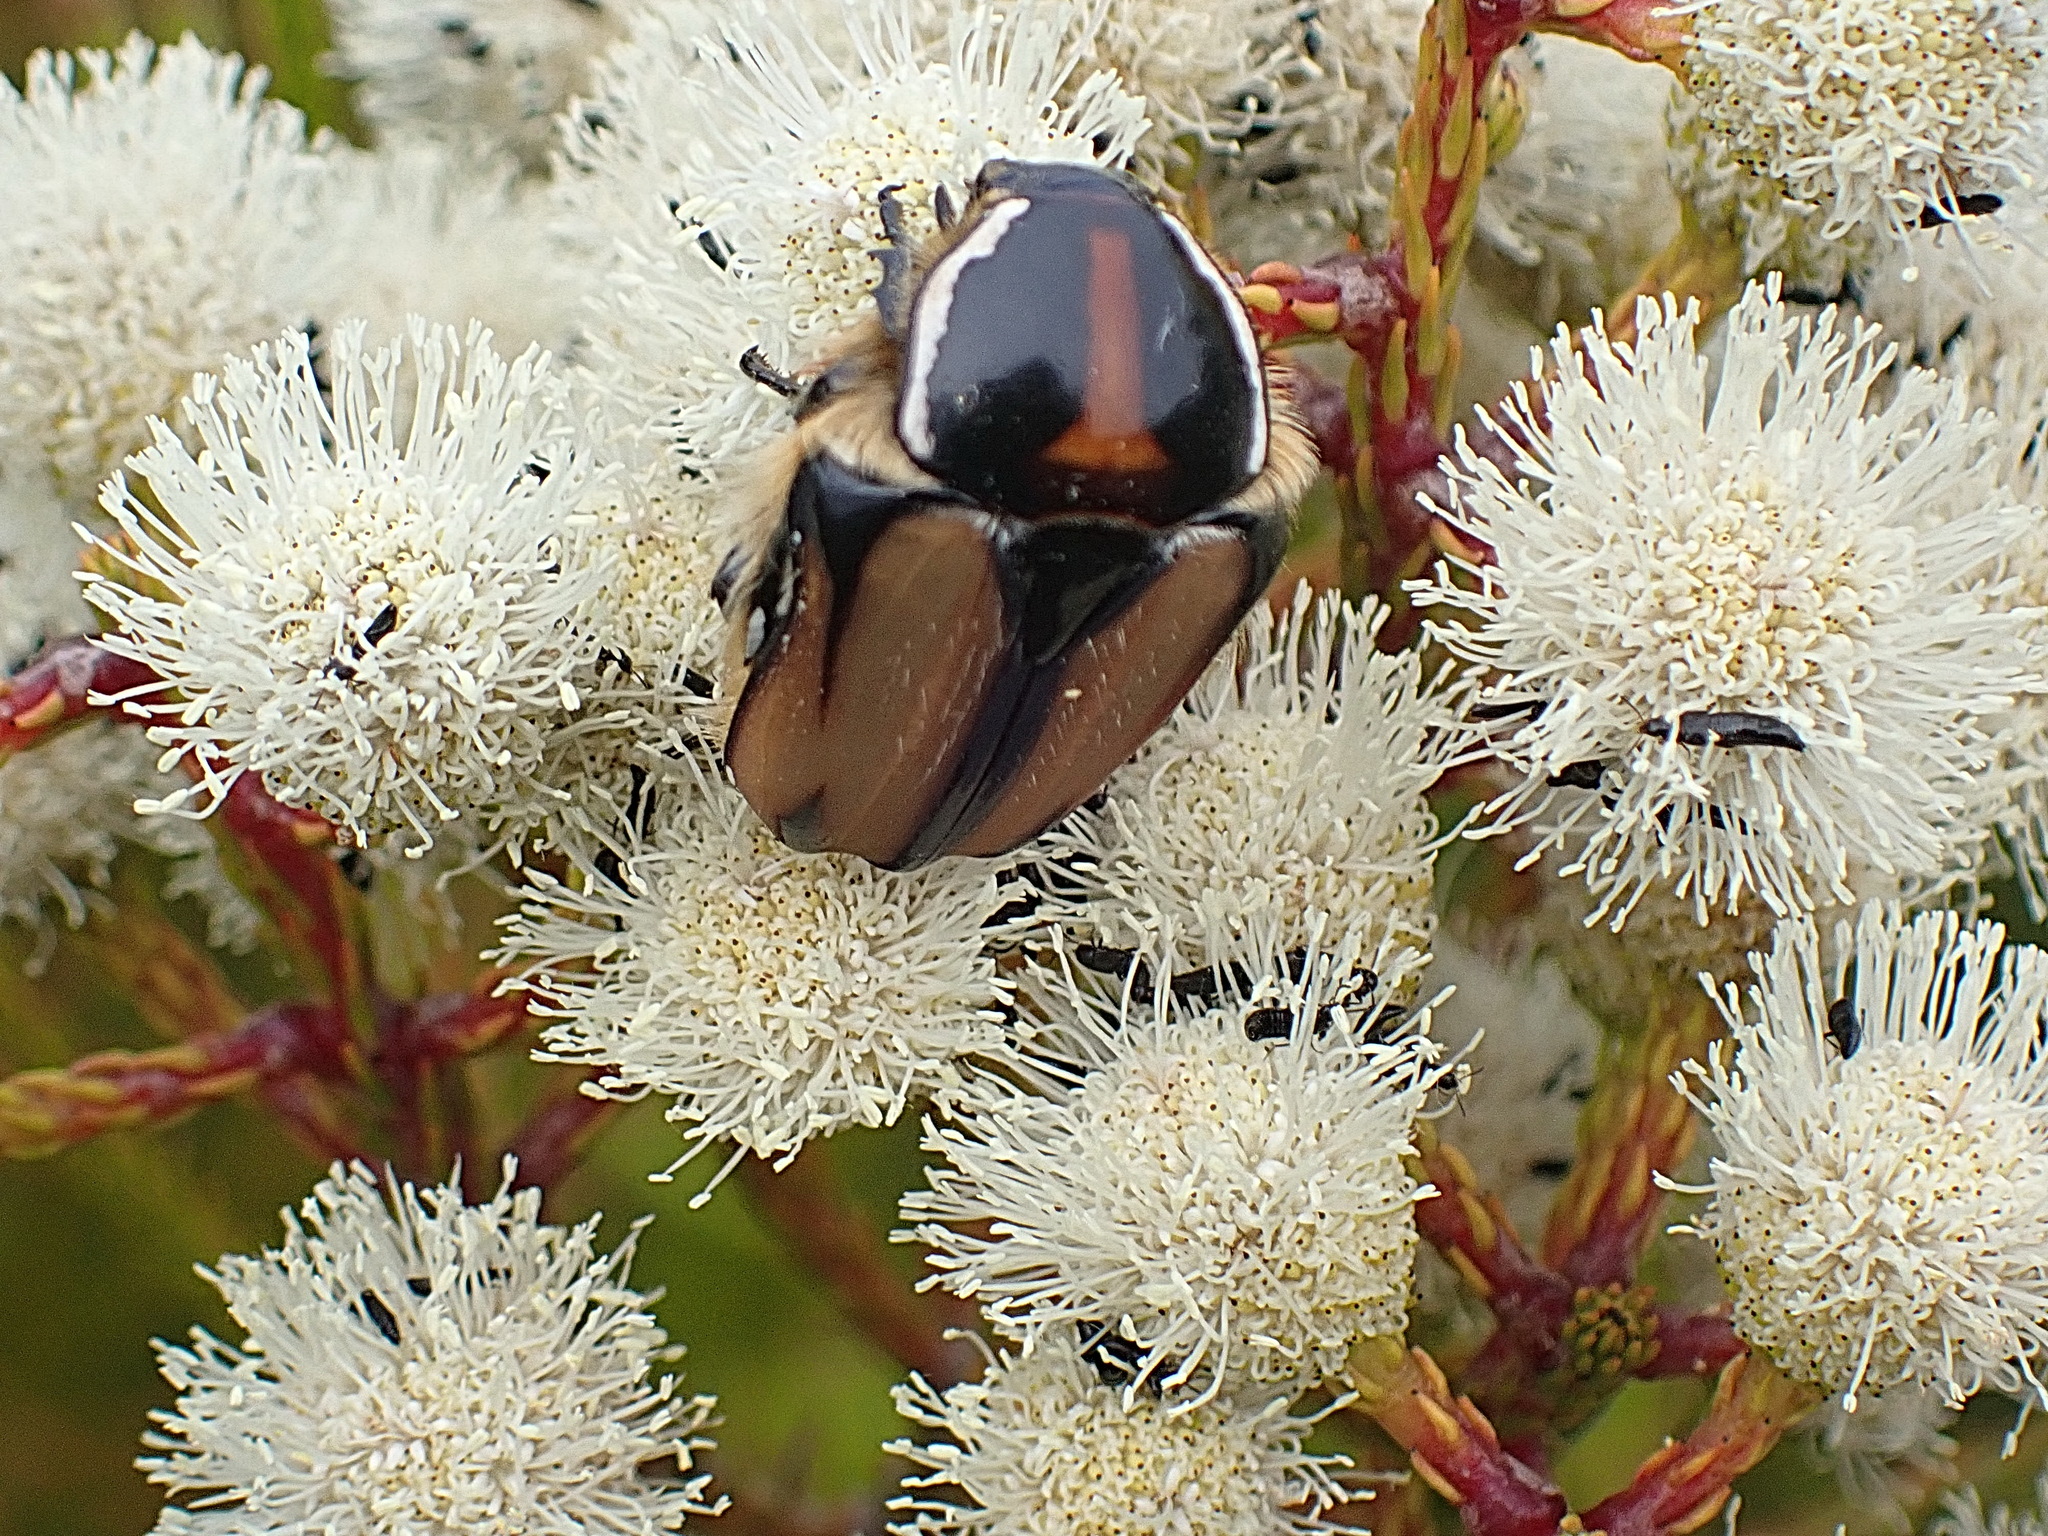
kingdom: Animalia
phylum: Arthropoda
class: Insecta
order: Coleoptera
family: Scarabaeidae
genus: Trichostetha
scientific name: Trichostetha signata
